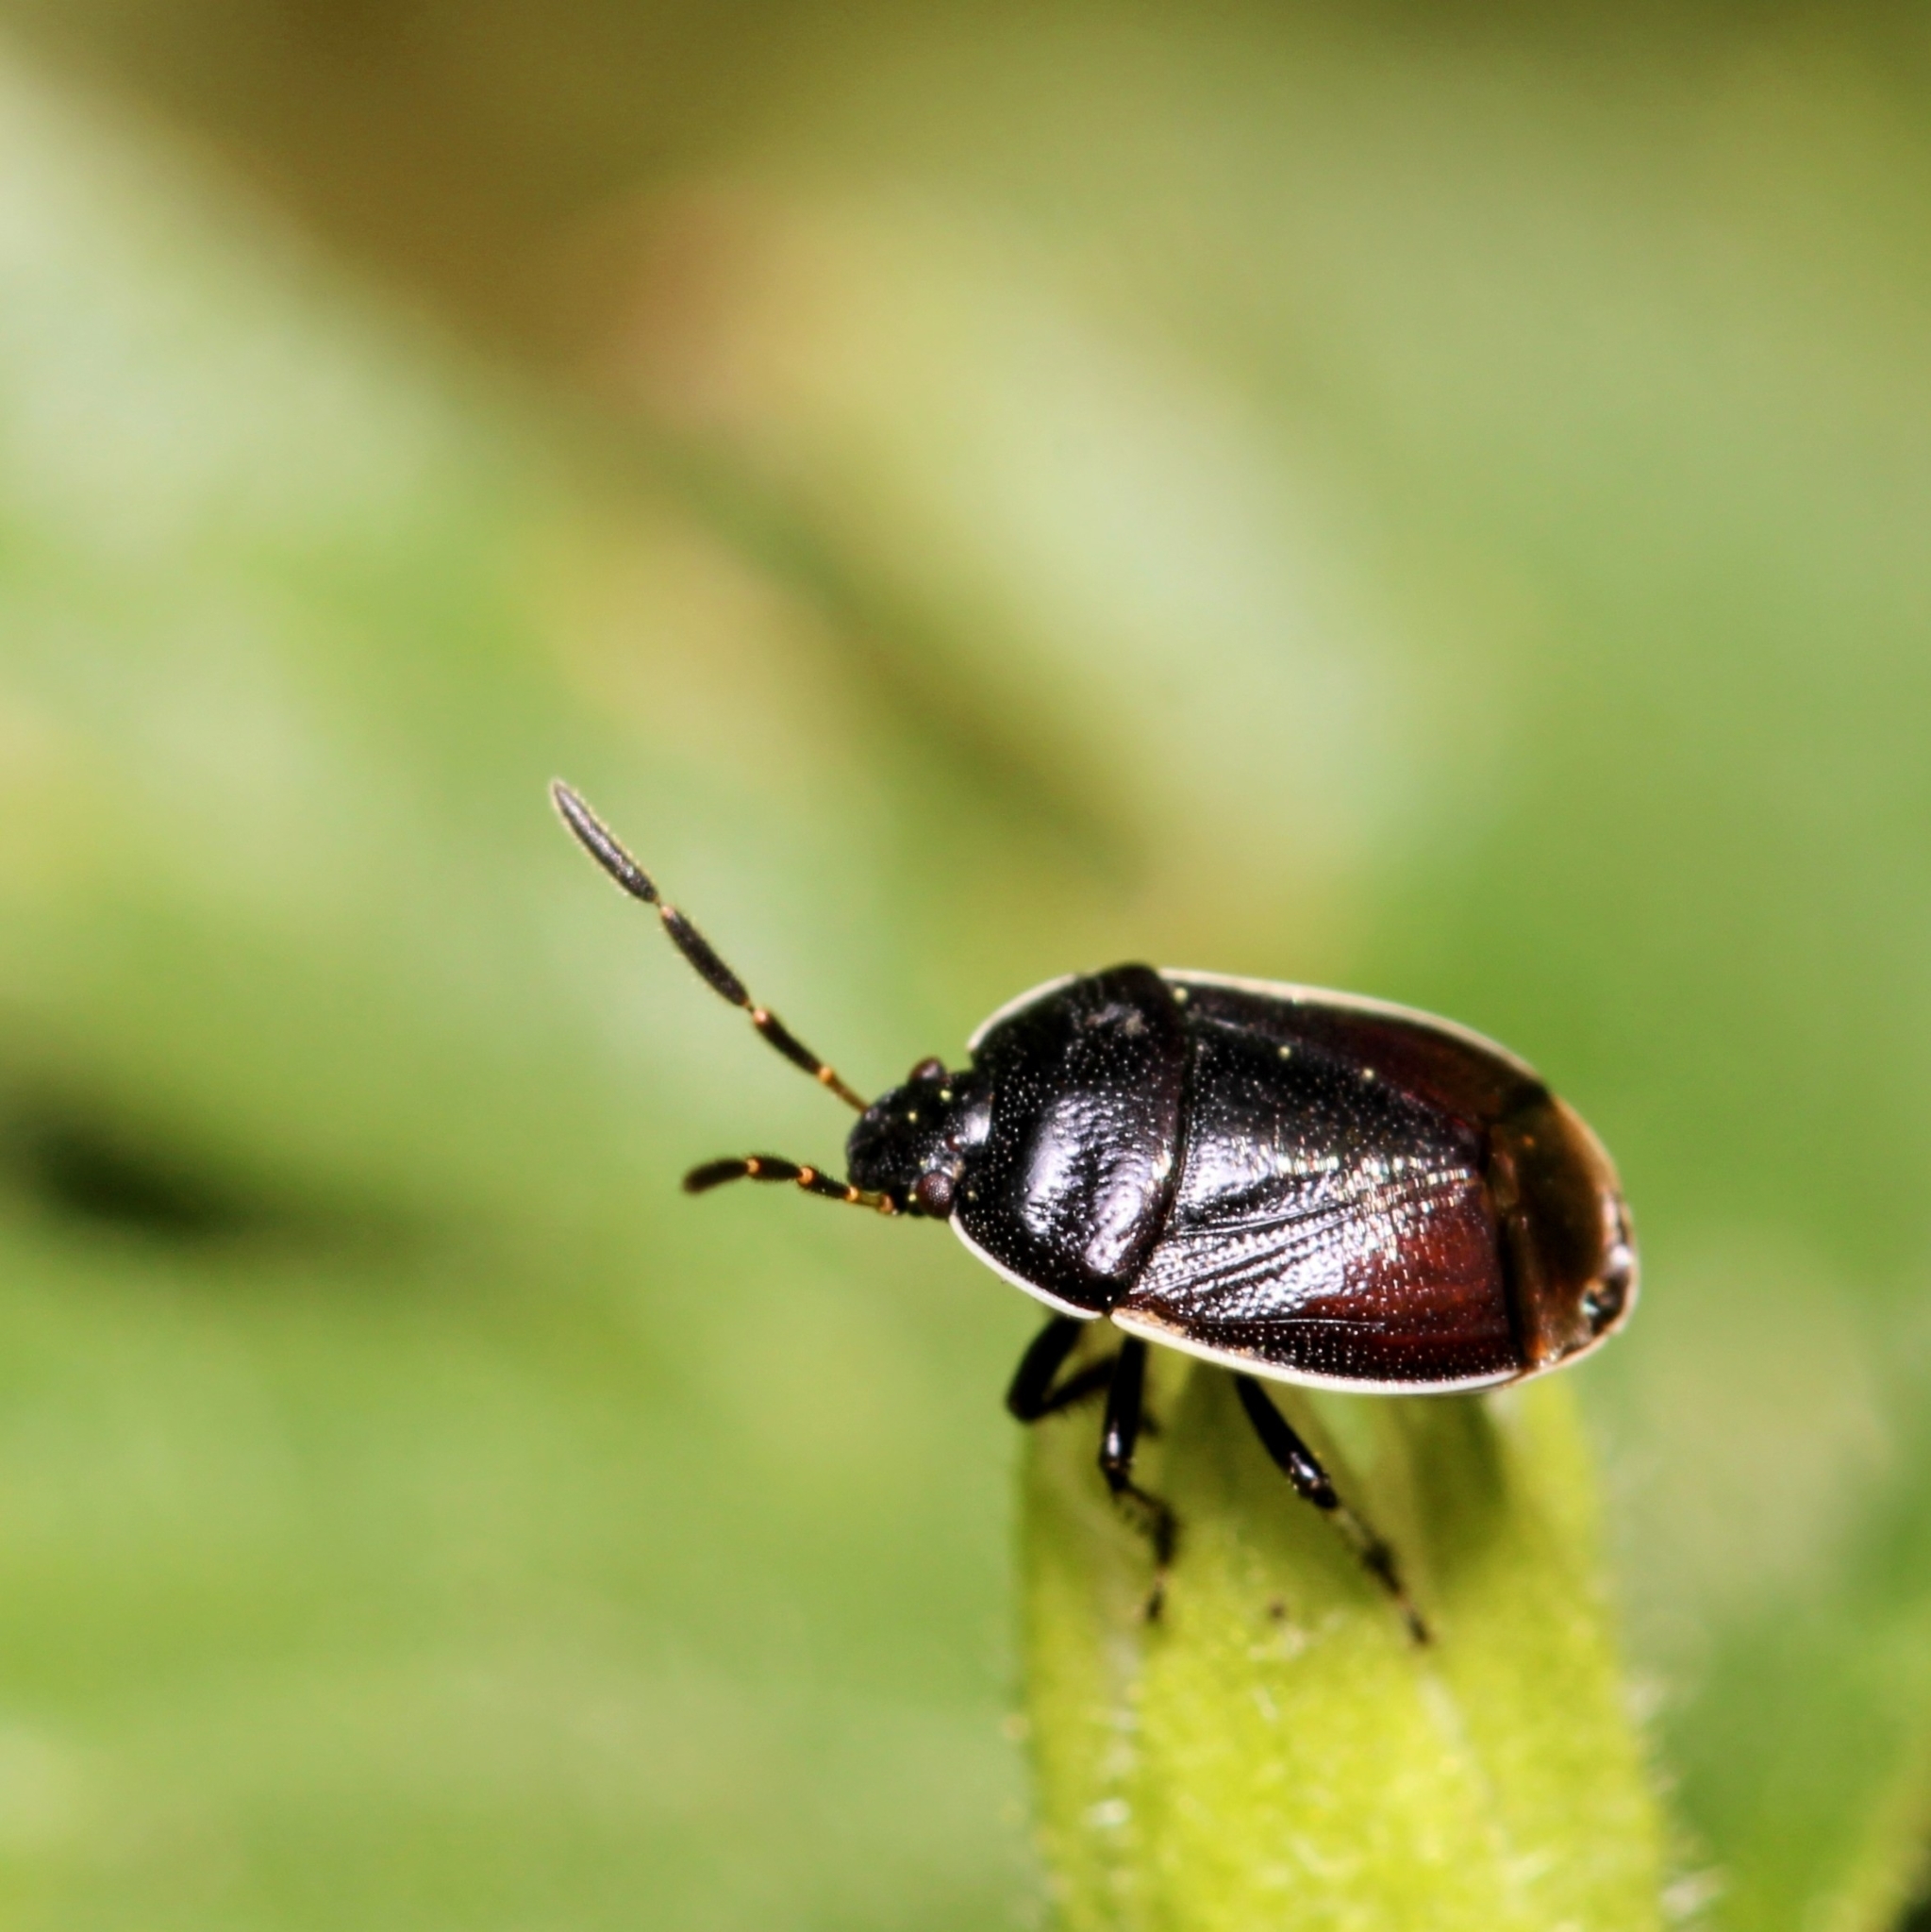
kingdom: Animalia
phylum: Arthropoda
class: Insecta
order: Hemiptera
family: Cydnidae
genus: Sehirus
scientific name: Sehirus cinctus
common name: White-margined burrower bug
